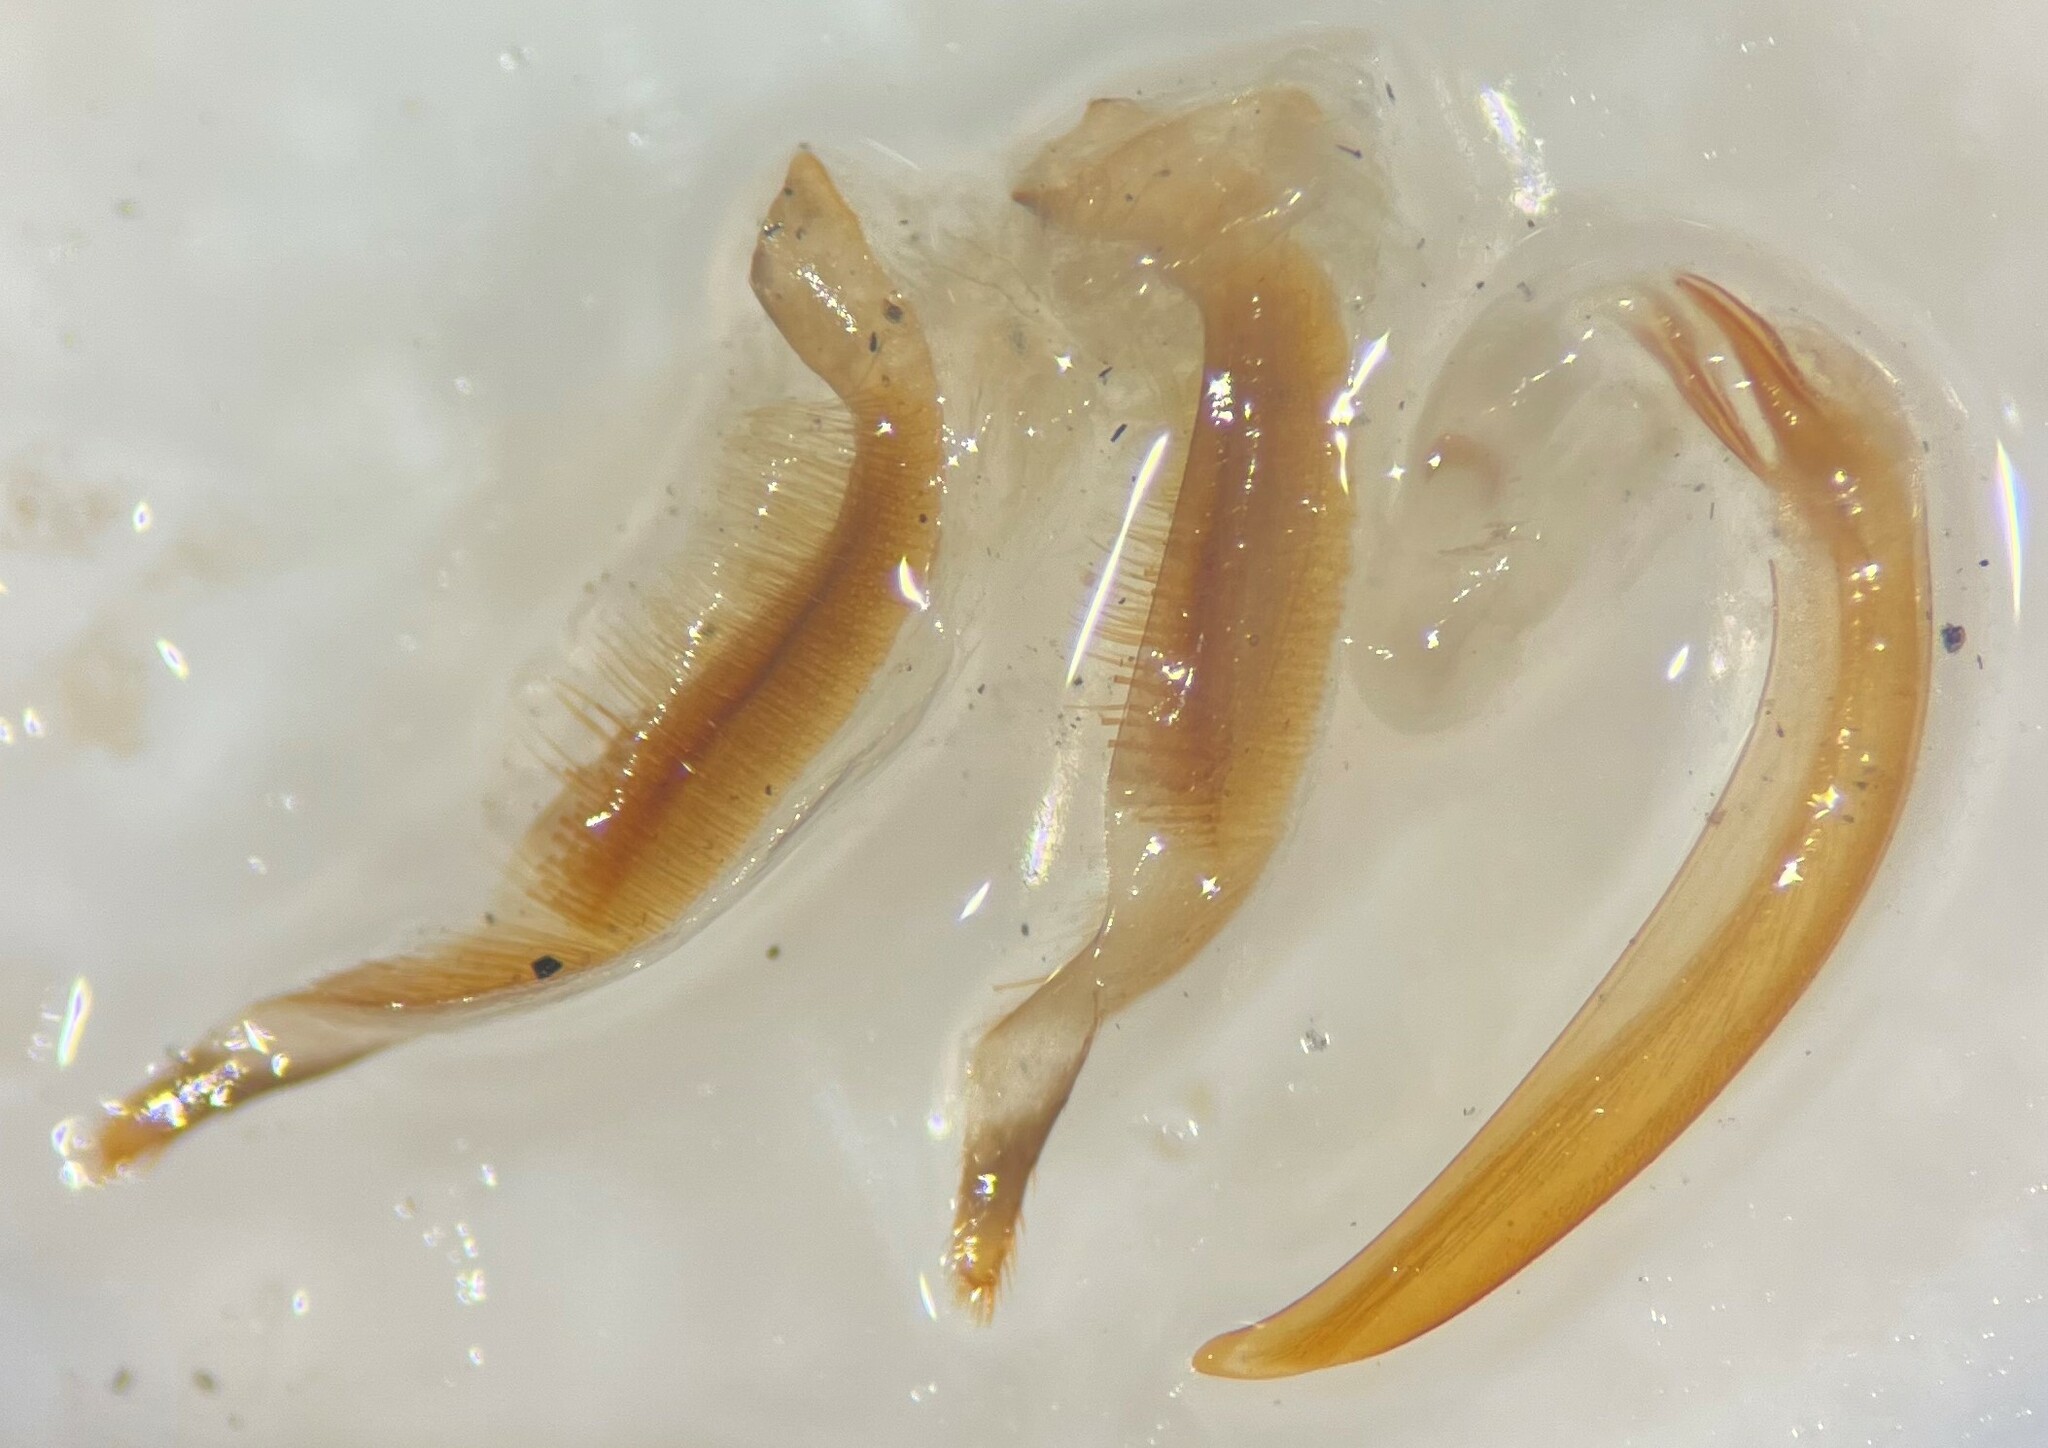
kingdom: Animalia
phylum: Arthropoda
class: Insecta
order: Coleoptera
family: Dytiscidae
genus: Ilybius
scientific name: Ilybius subaeneus
